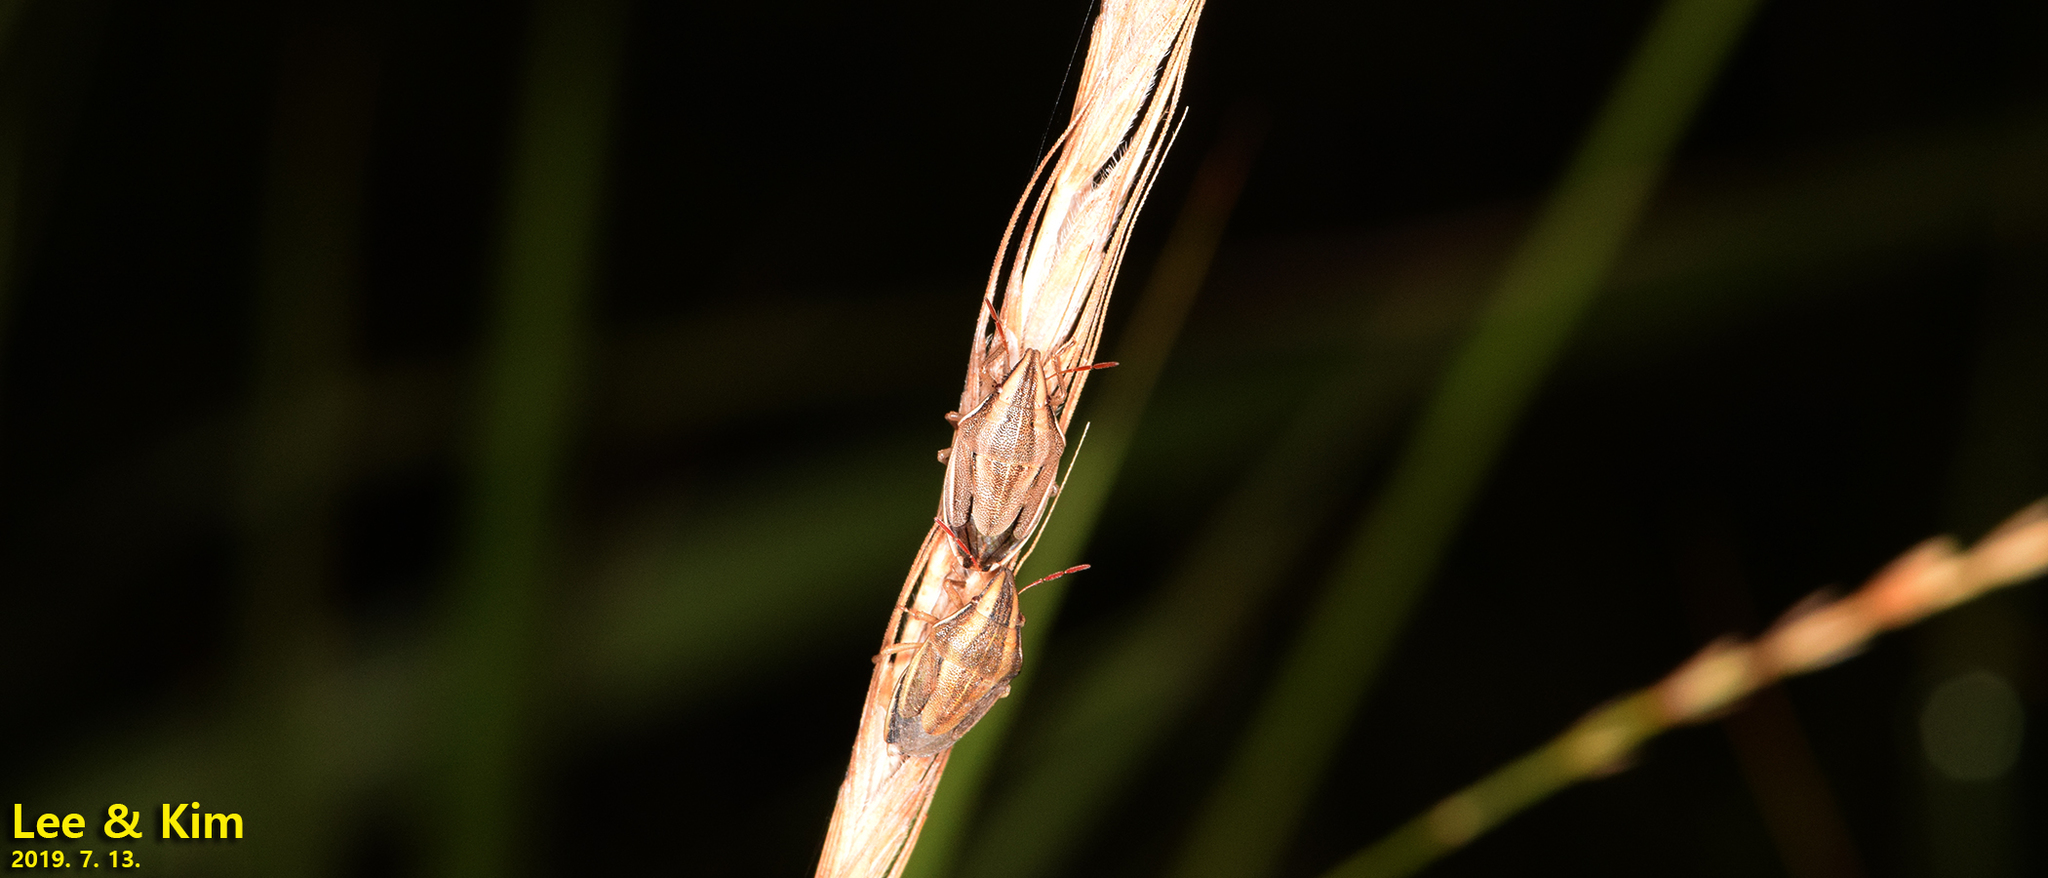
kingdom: Animalia
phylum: Arthropoda
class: Insecta
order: Hemiptera
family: Pentatomidae
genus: Aelia
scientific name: Aelia
